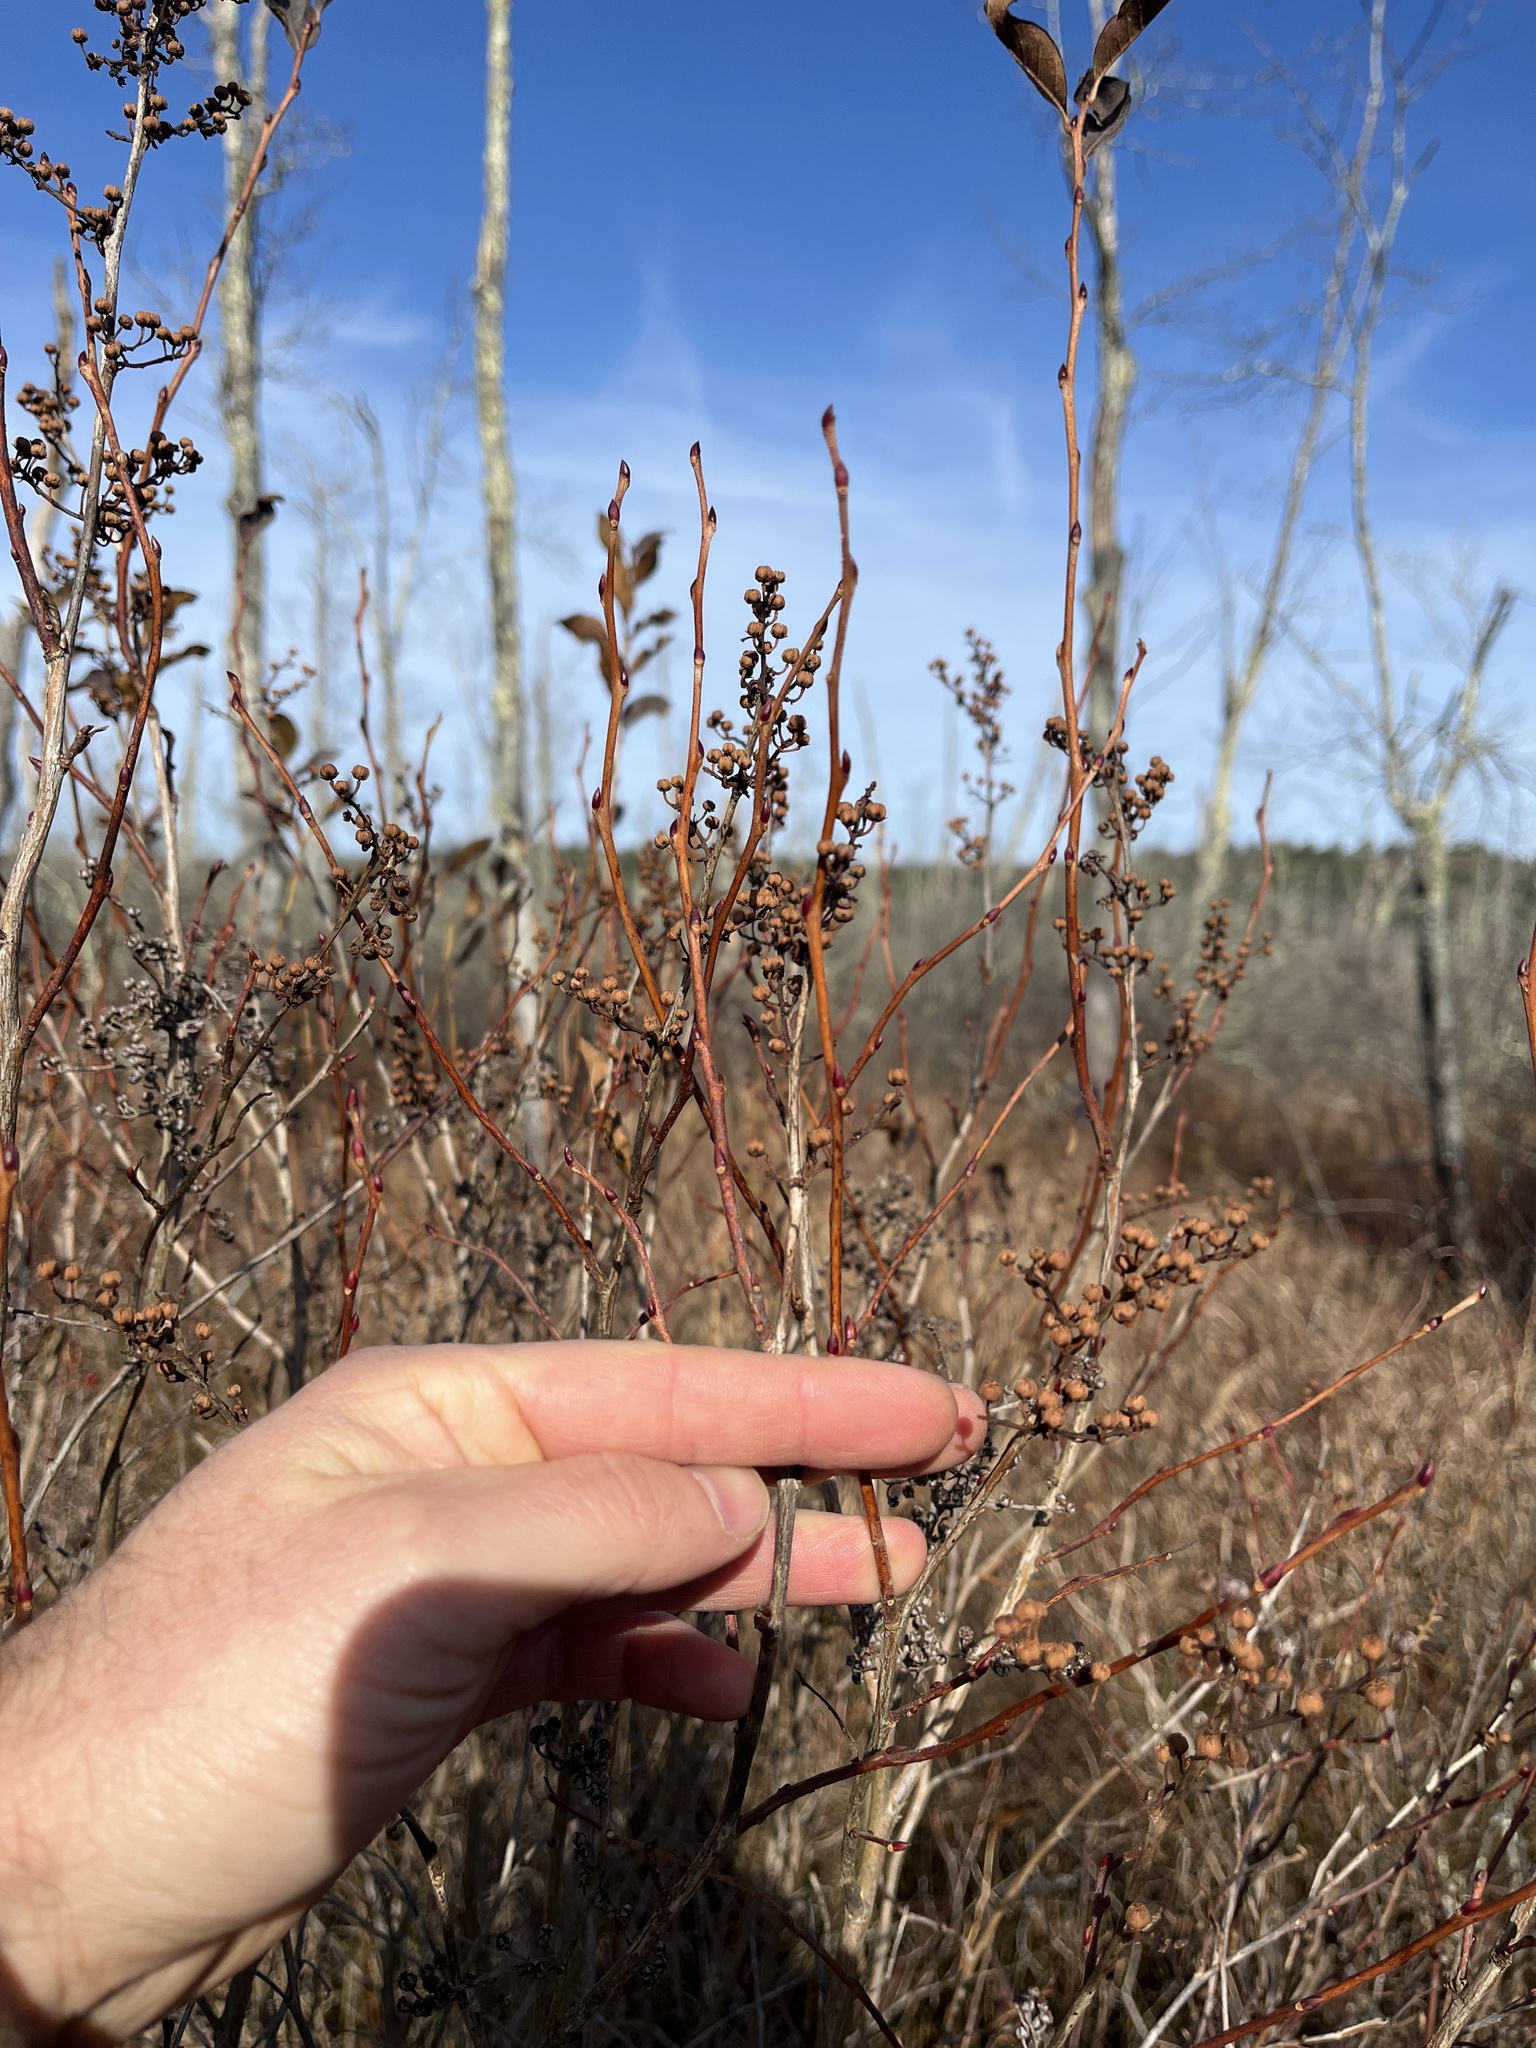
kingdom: Plantae
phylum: Tracheophyta
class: Magnoliopsida
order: Ericales
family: Ericaceae
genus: Lyonia
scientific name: Lyonia ligustrina
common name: Maleberry
